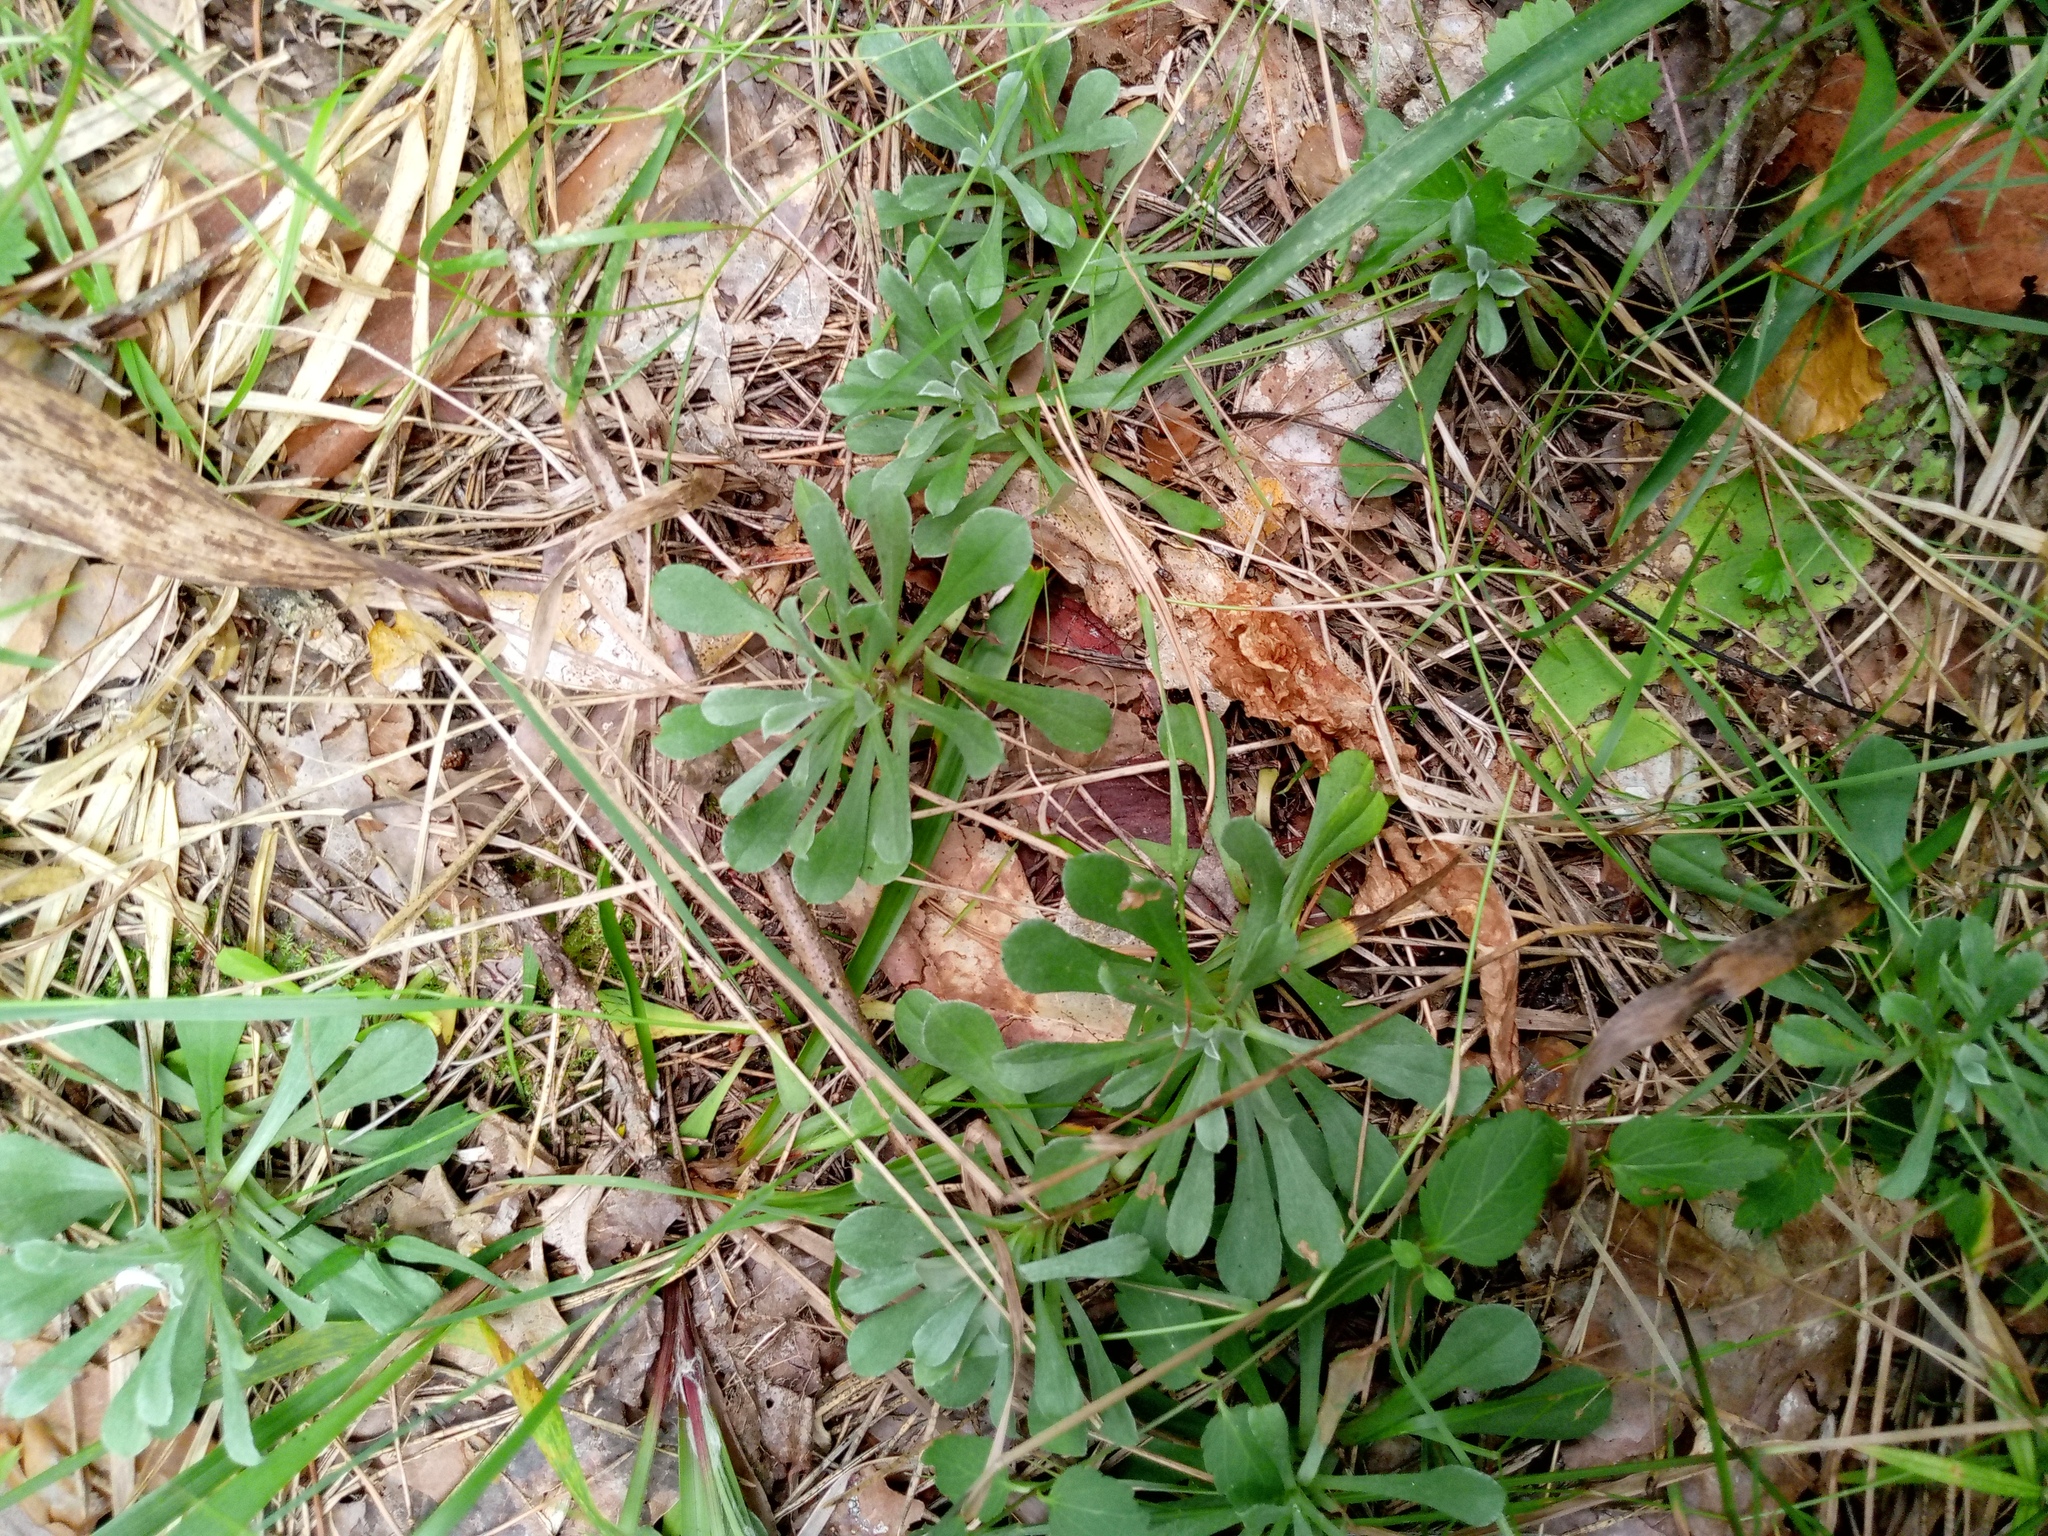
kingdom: Plantae
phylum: Tracheophyta
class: Magnoliopsida
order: Asterales
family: Asteraceae
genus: Antennaria
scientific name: Antennaria dioica
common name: Mountain everlasting
